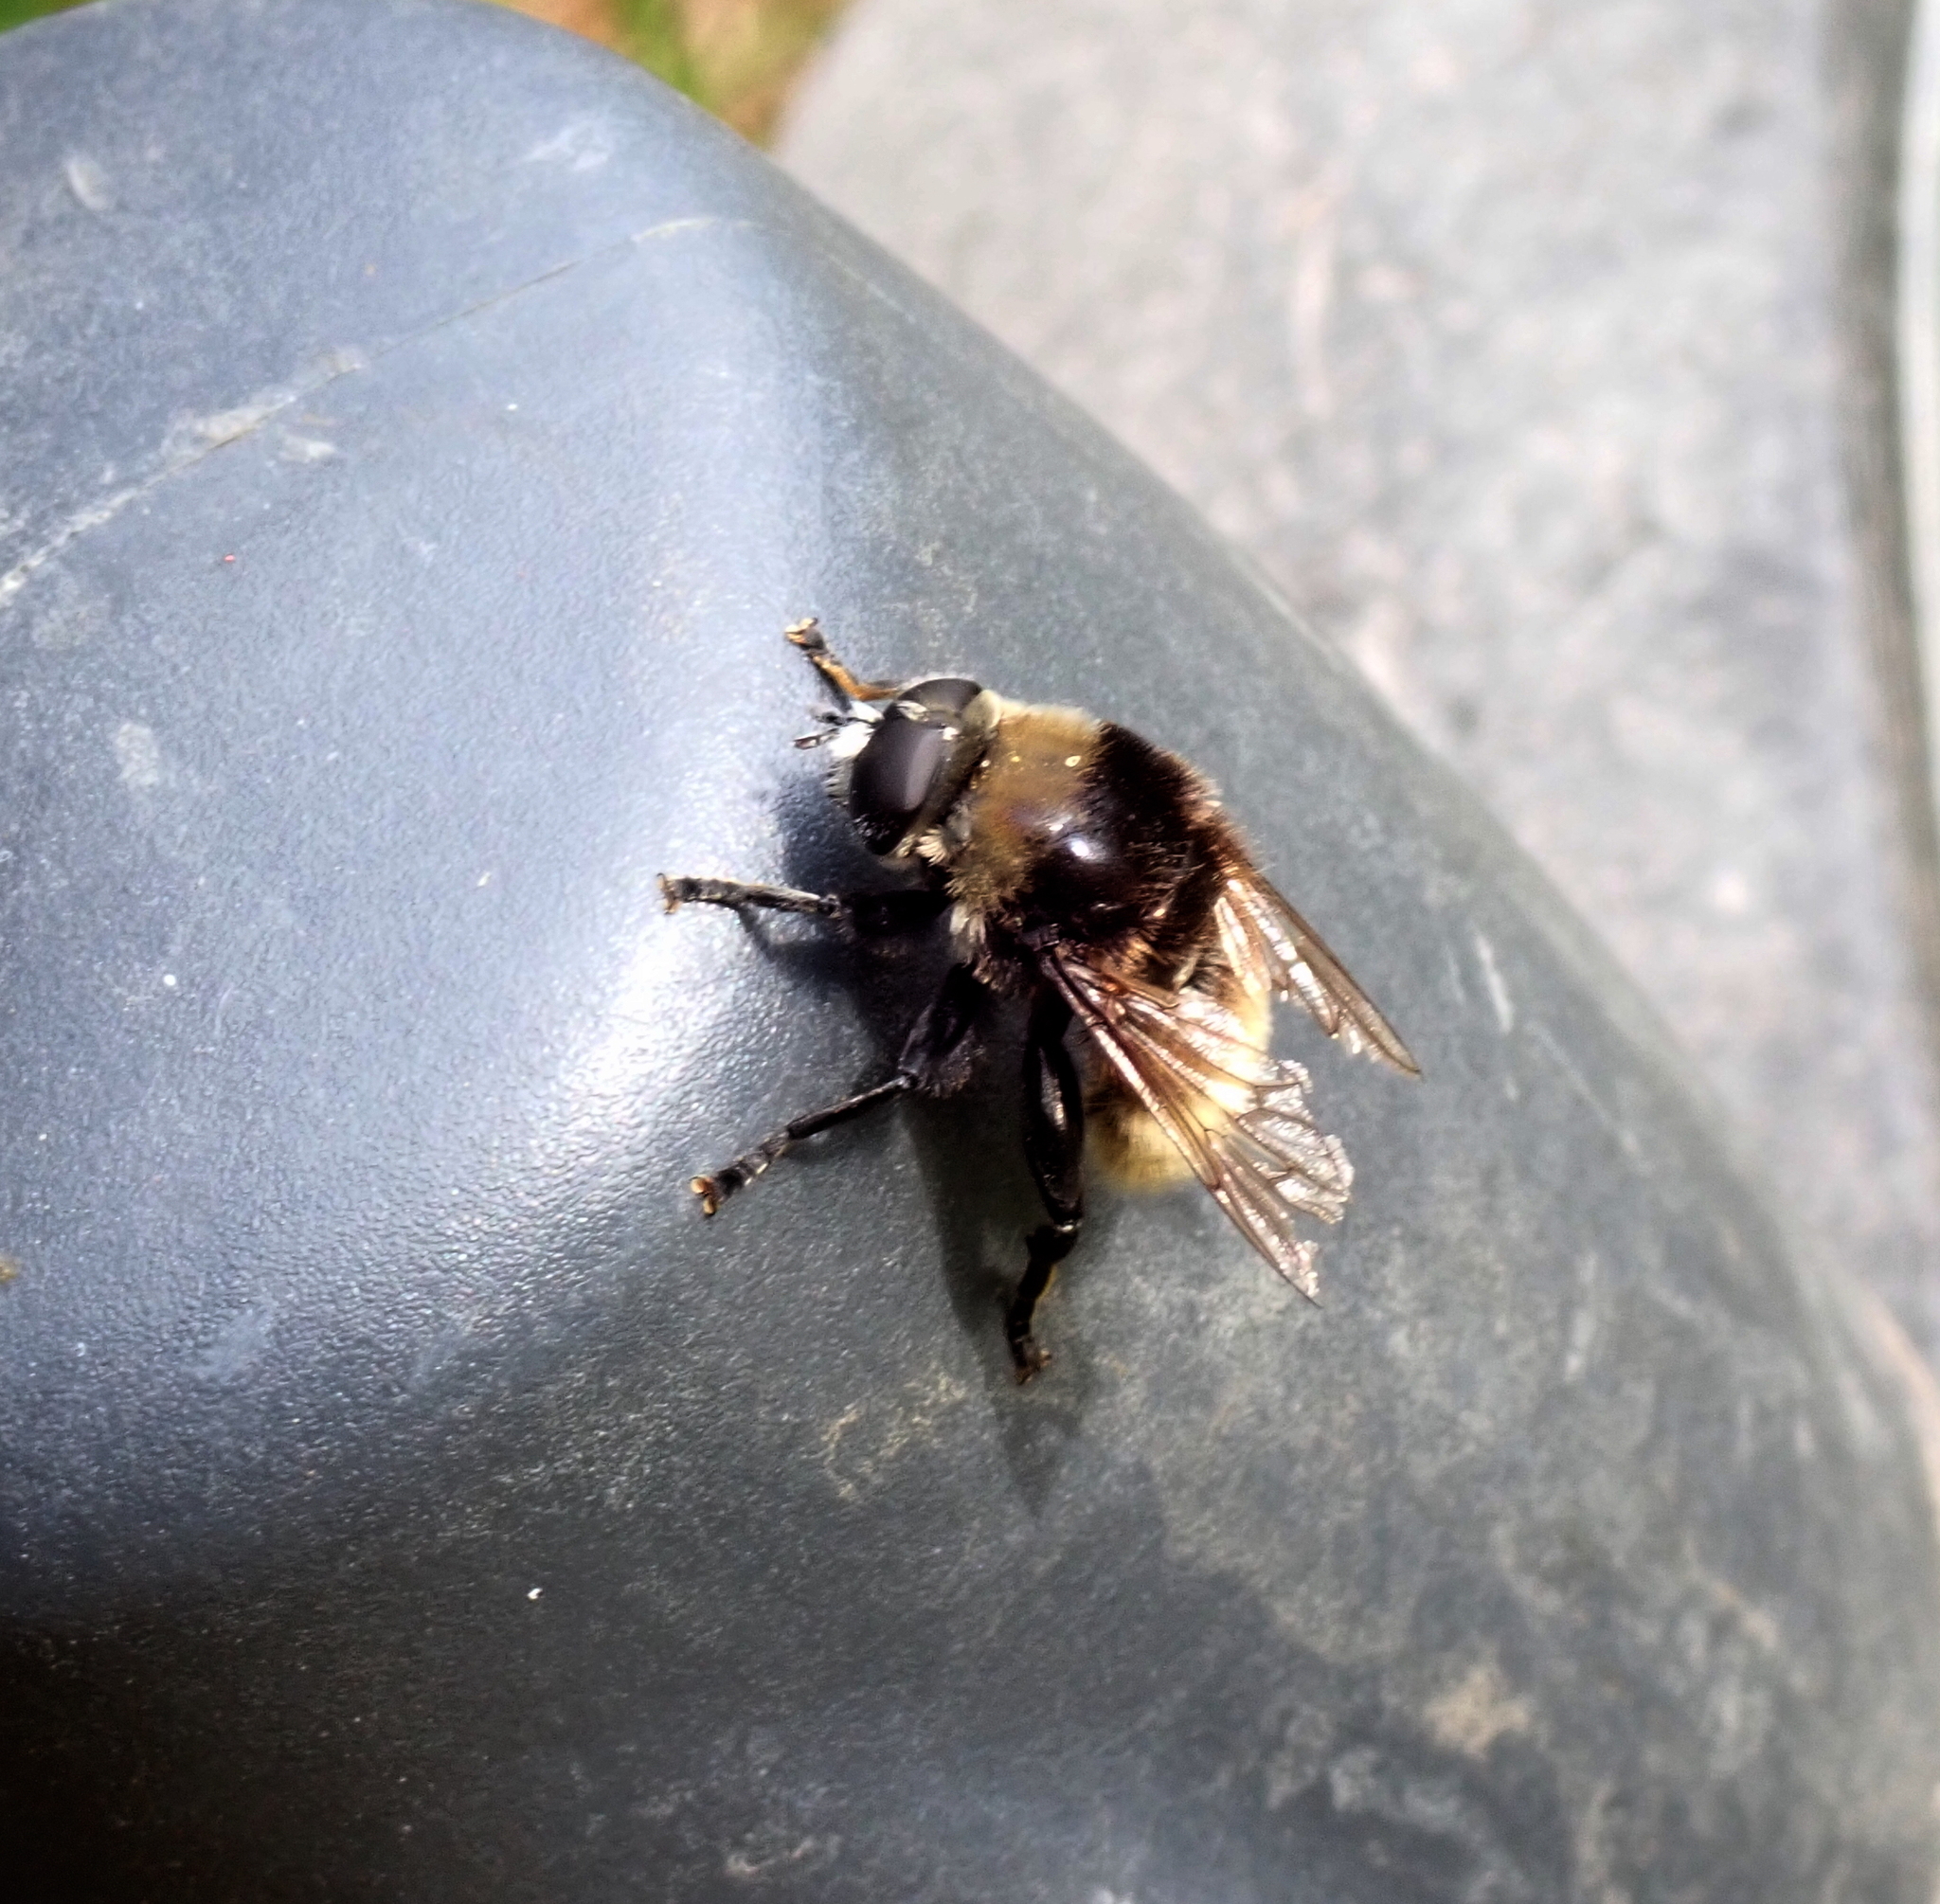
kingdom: Animalia
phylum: Arthropoda
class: Insecta
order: Diptera
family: Syrphidae
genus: Merodon
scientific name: Merodon equestris
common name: Greater bulb-fly
